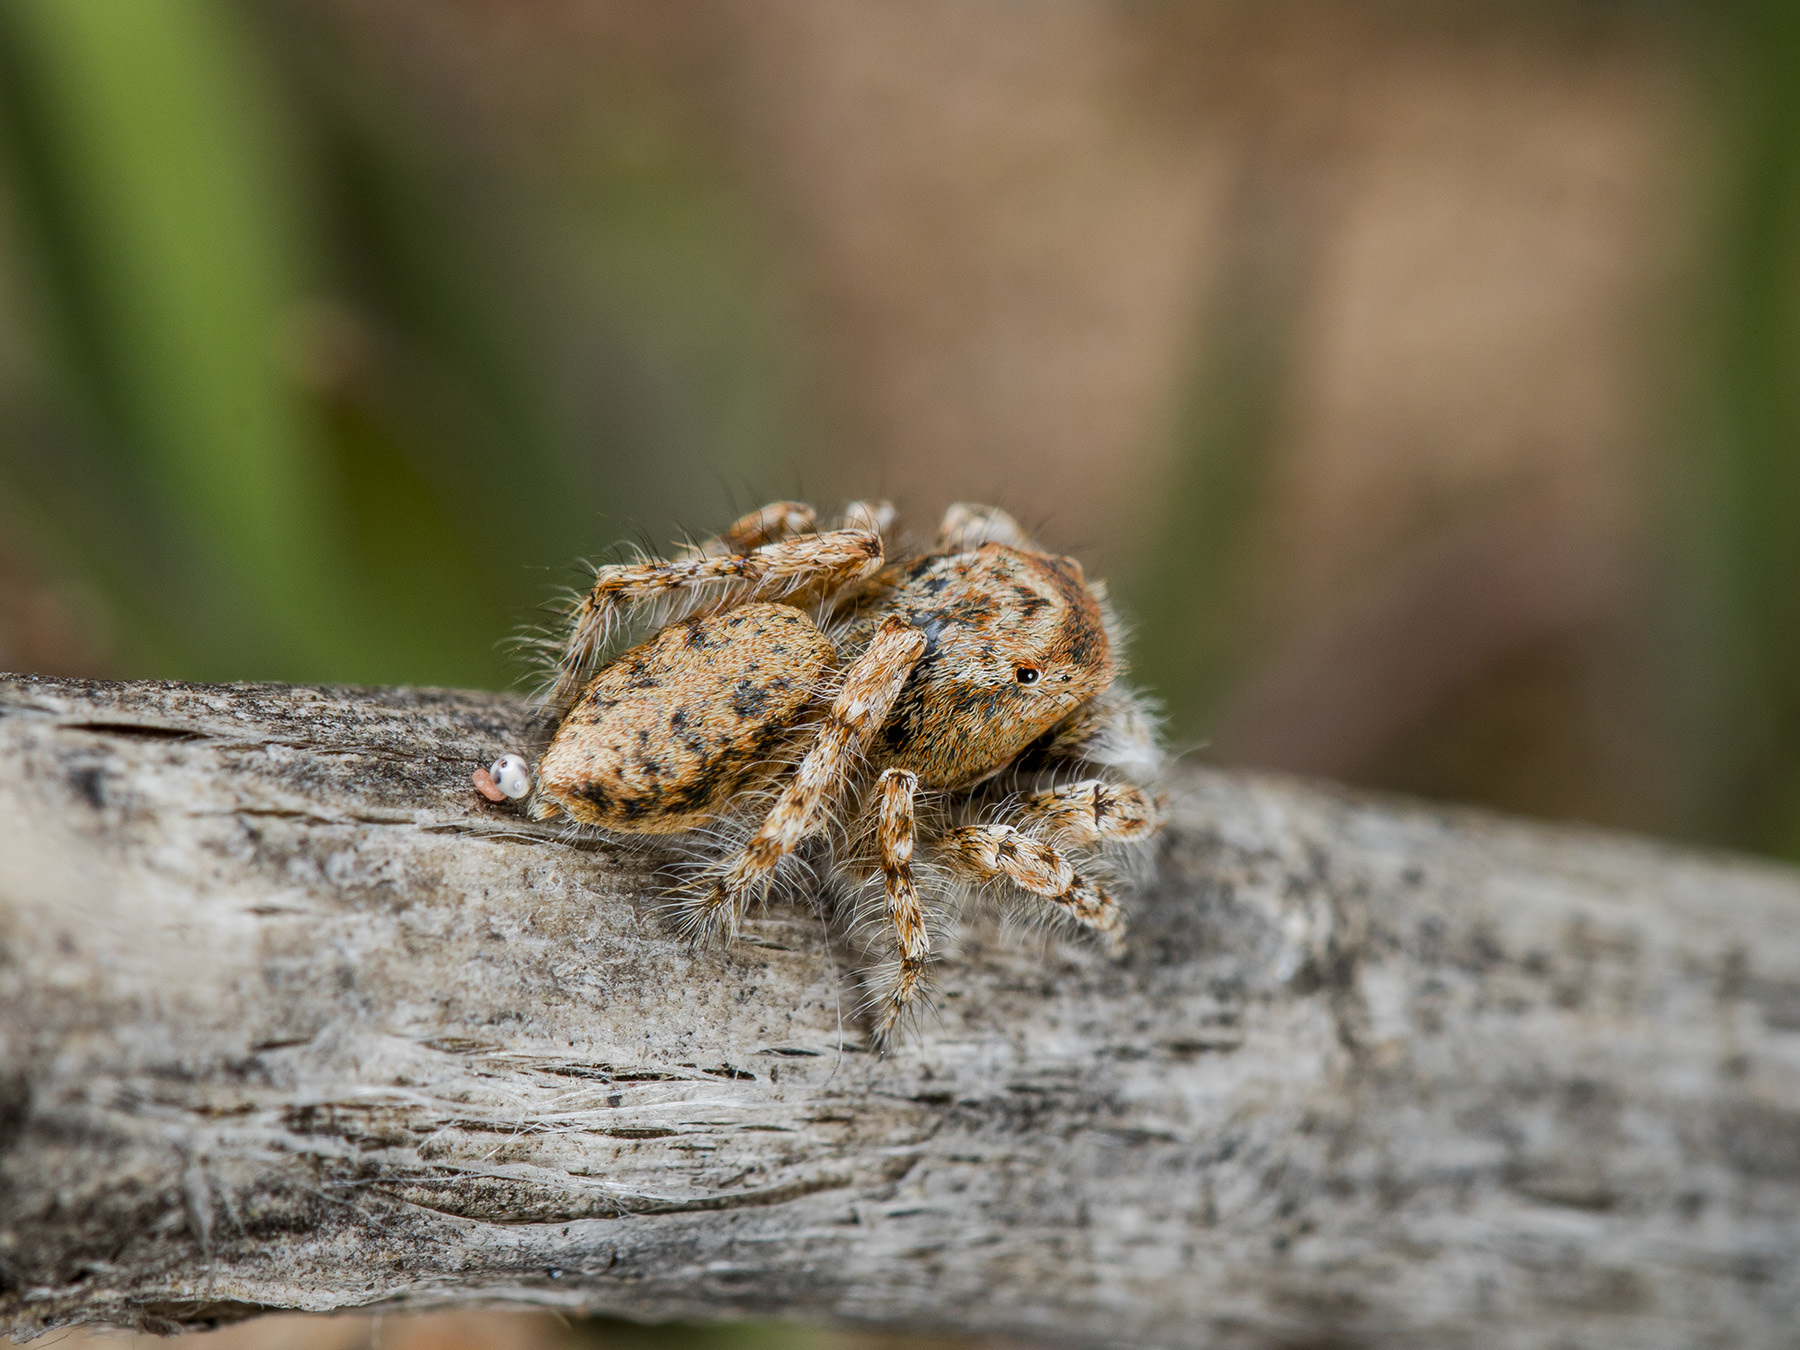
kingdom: Animalia
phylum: Arthropoda
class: Arachnida
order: Araneae
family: Salticidae
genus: Yllenus
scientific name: Yllenus uiguricus
